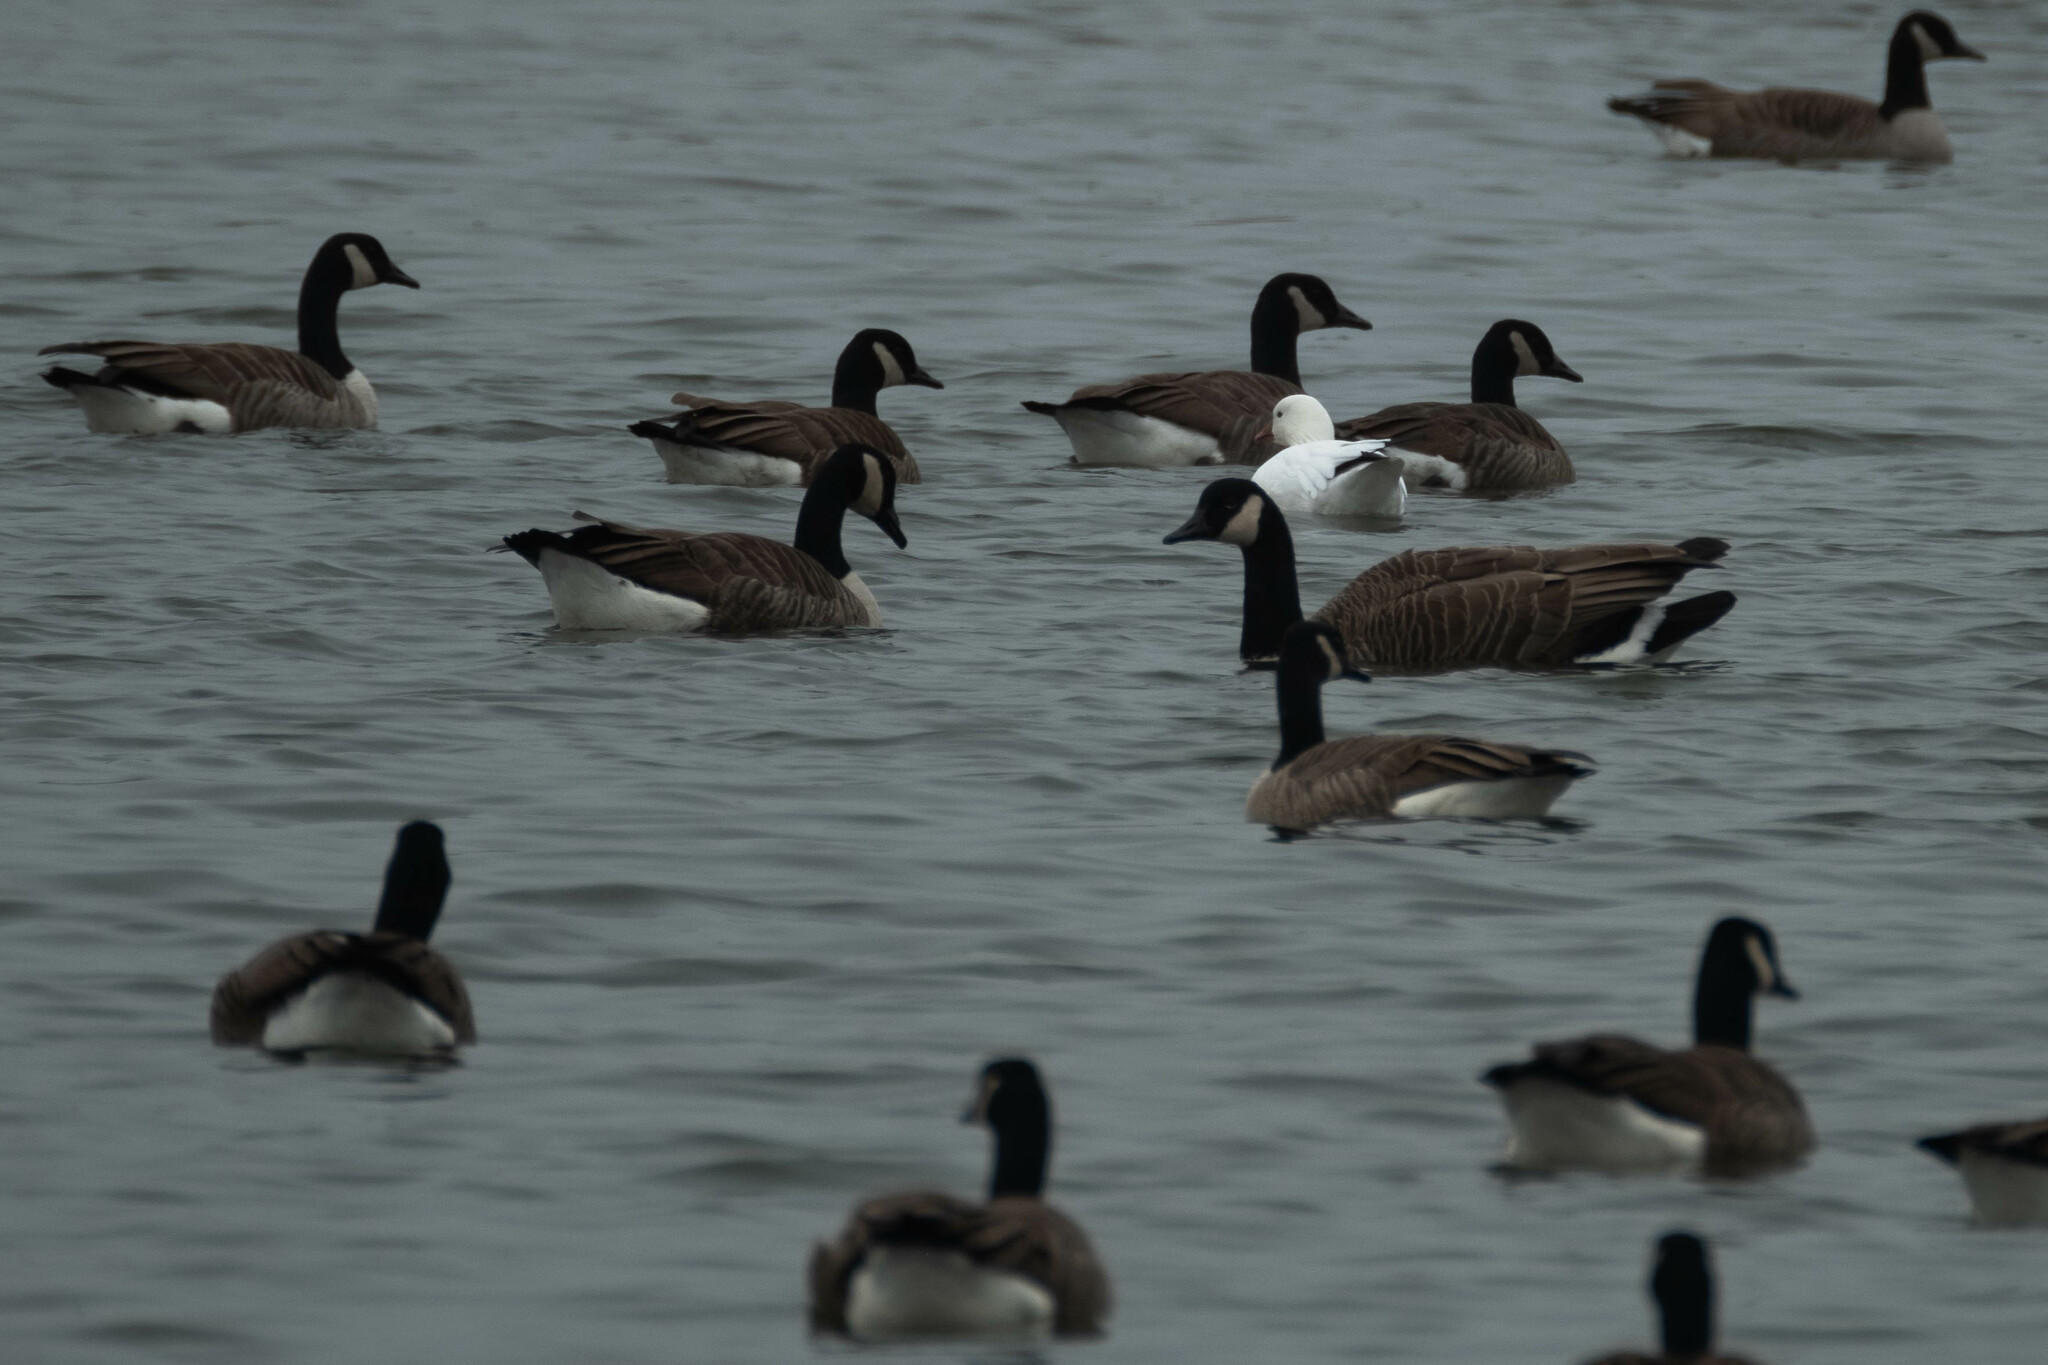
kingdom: Animalia
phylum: Chordata
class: Aves
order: Anseriformes
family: Anatidae
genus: Anser
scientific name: Anser rossii
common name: Ross's goose
